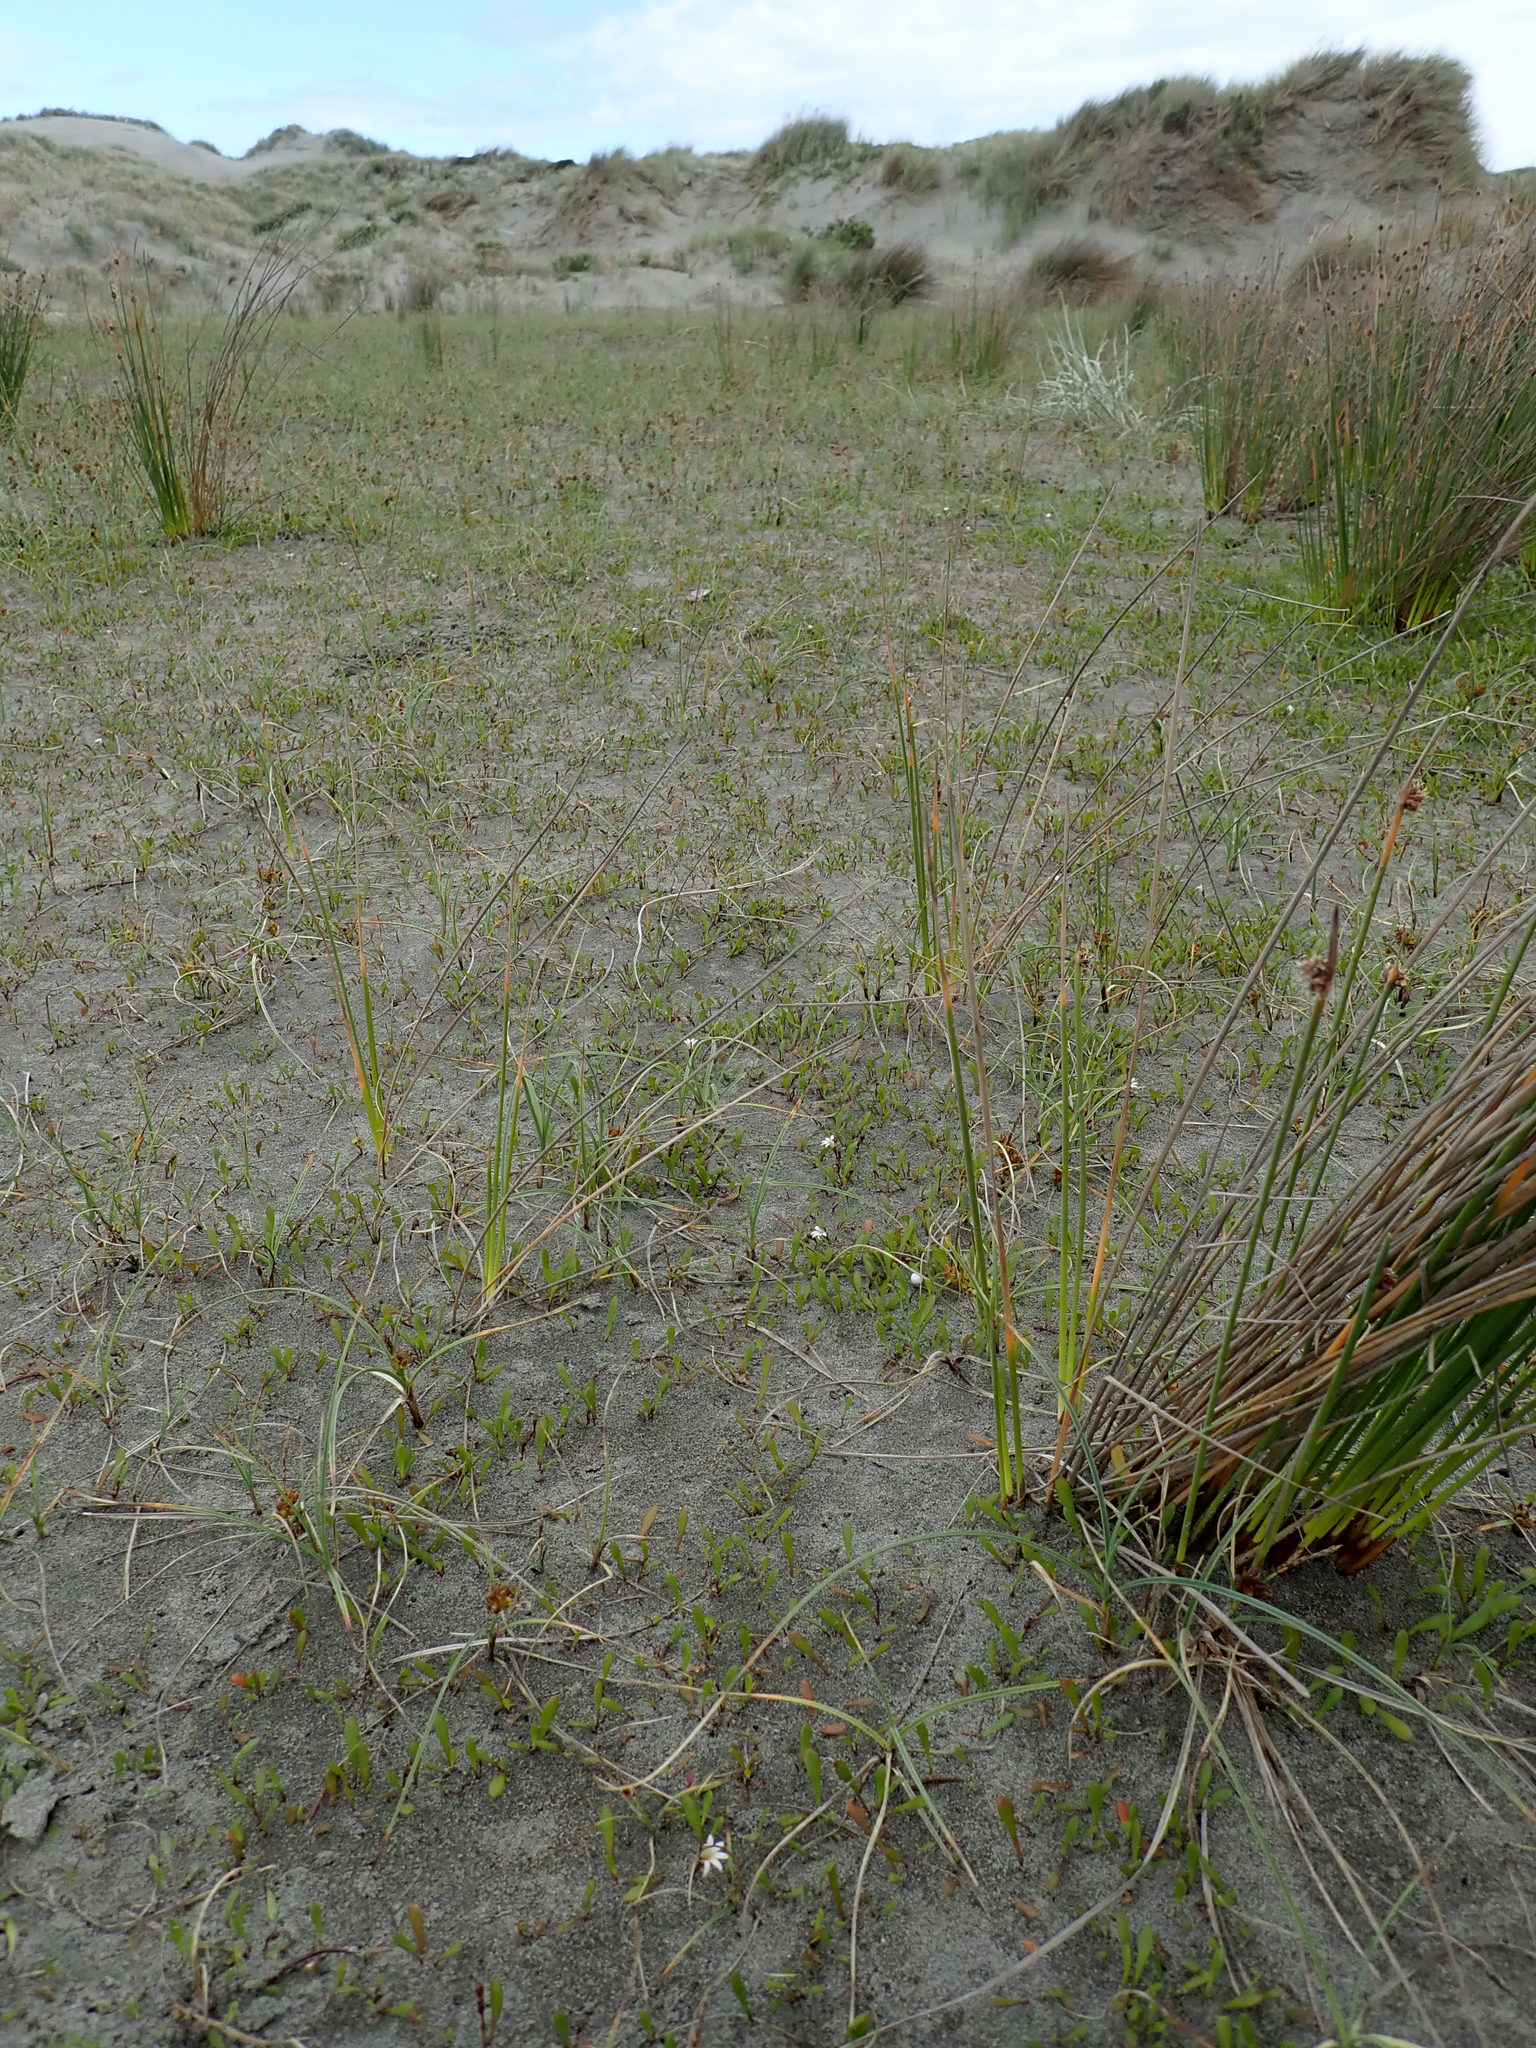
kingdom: Plantae
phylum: Tracheophyta
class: Magnoliopsida
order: Asterales
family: Goodeniaceae
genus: Goodenia
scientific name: Goodenia radicans
